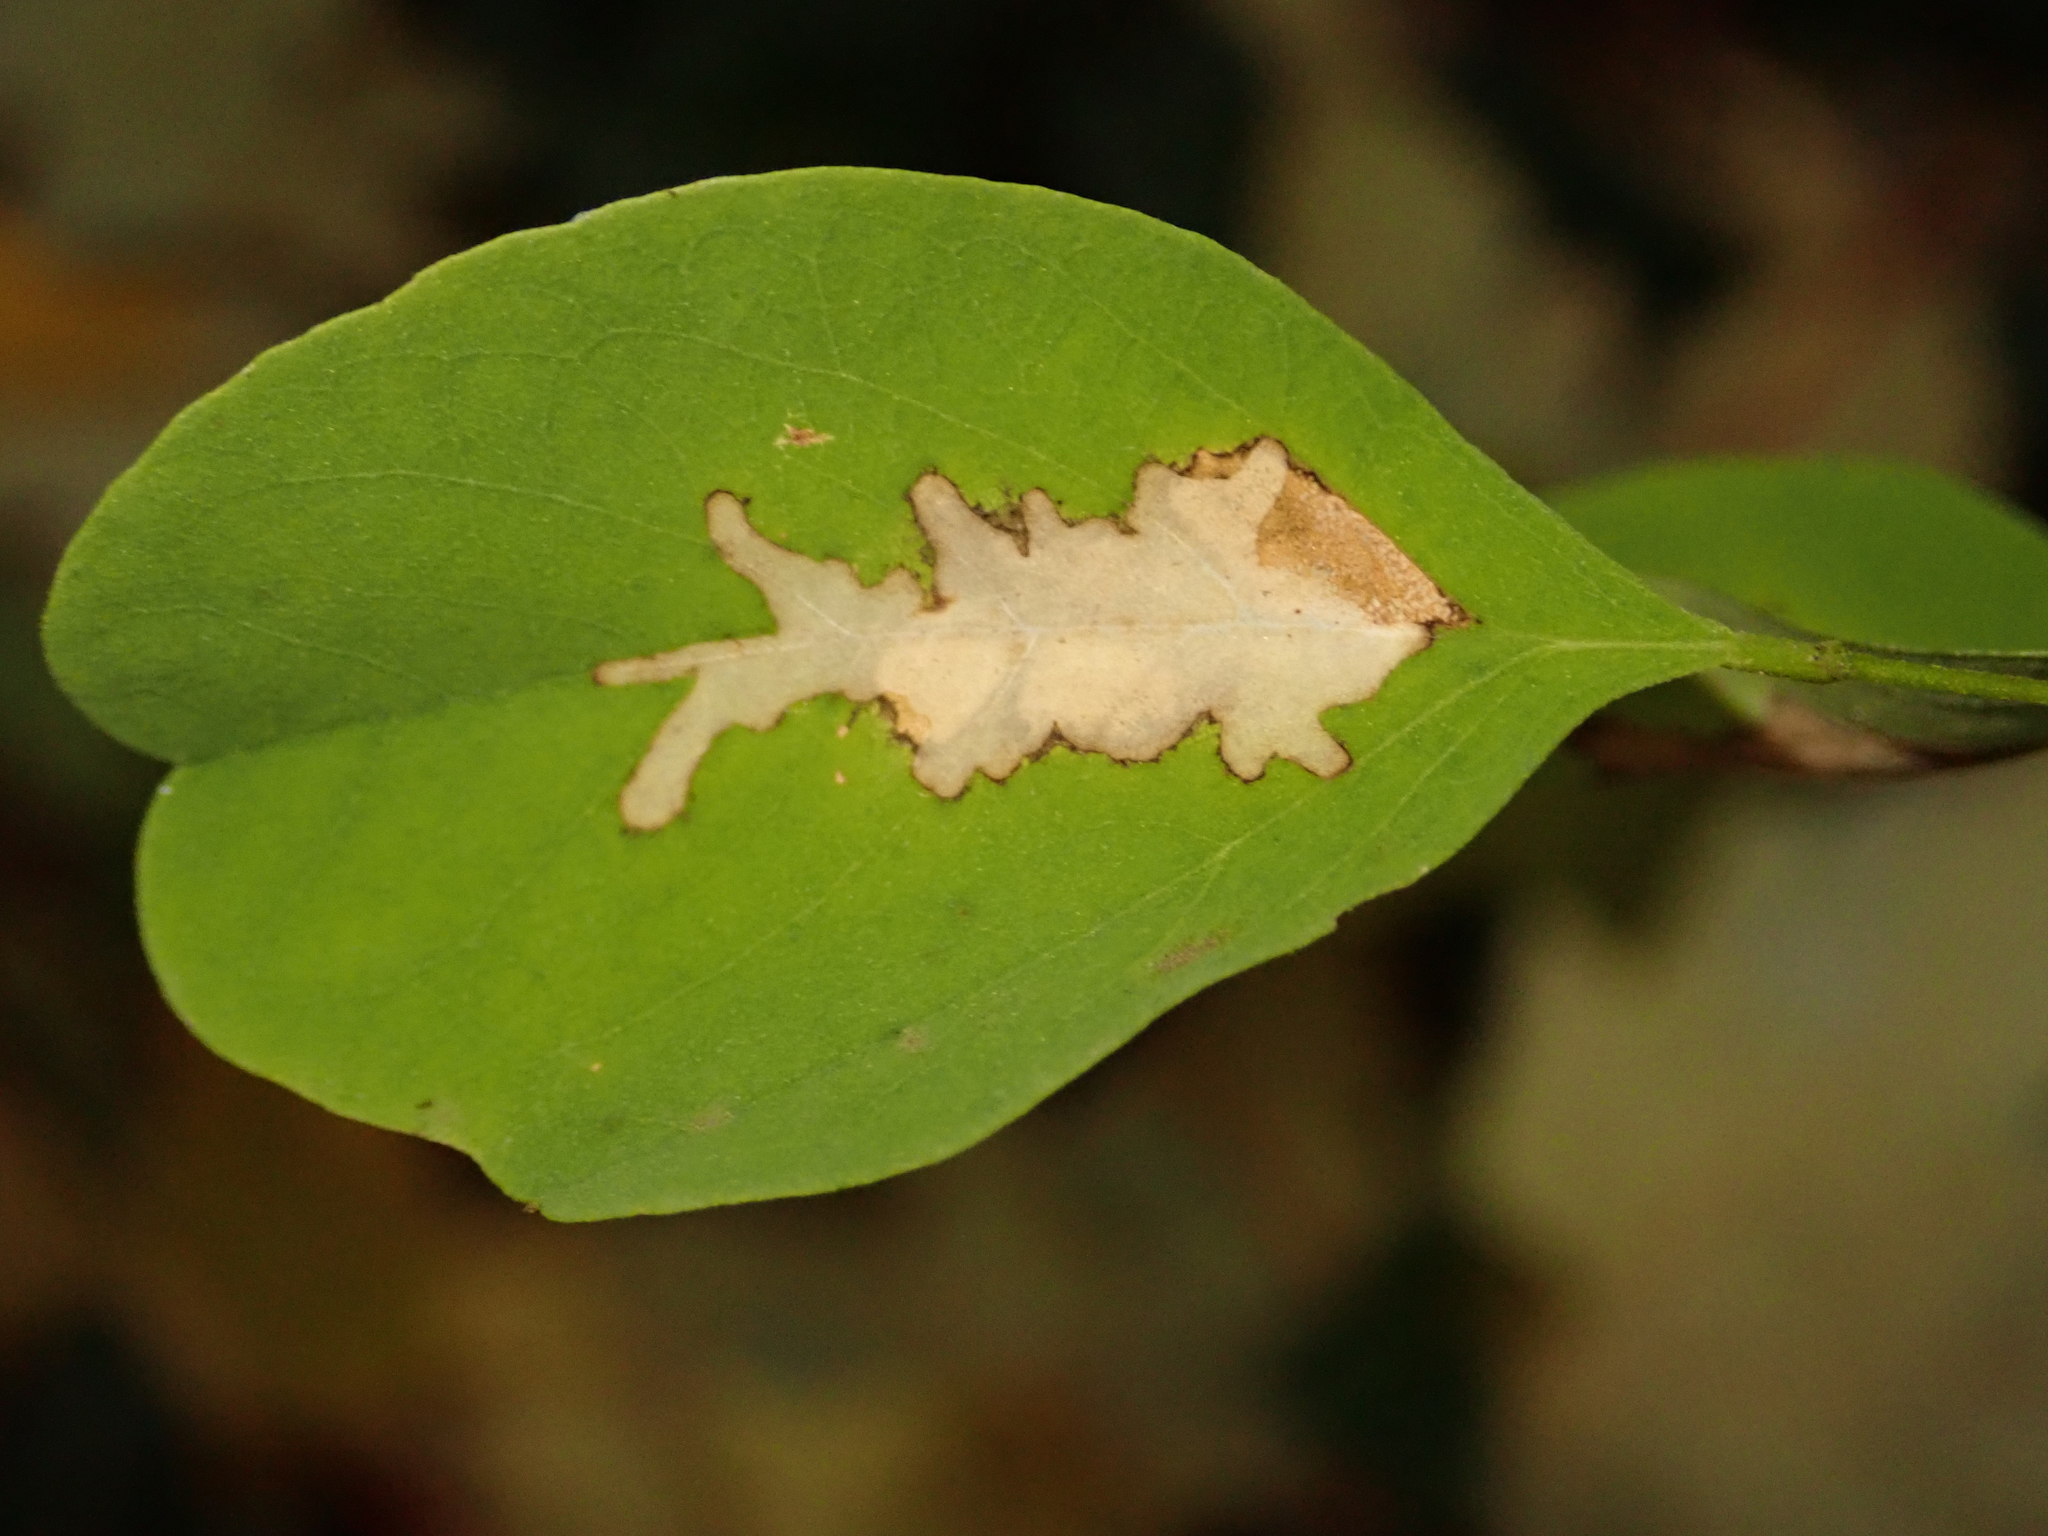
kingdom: Animalia
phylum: Arthropoda
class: Insecta
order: Lepidoptera
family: Gracillariidae
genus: Parectopa
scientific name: Parectopa robiniella
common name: Locust digitate leafminer
